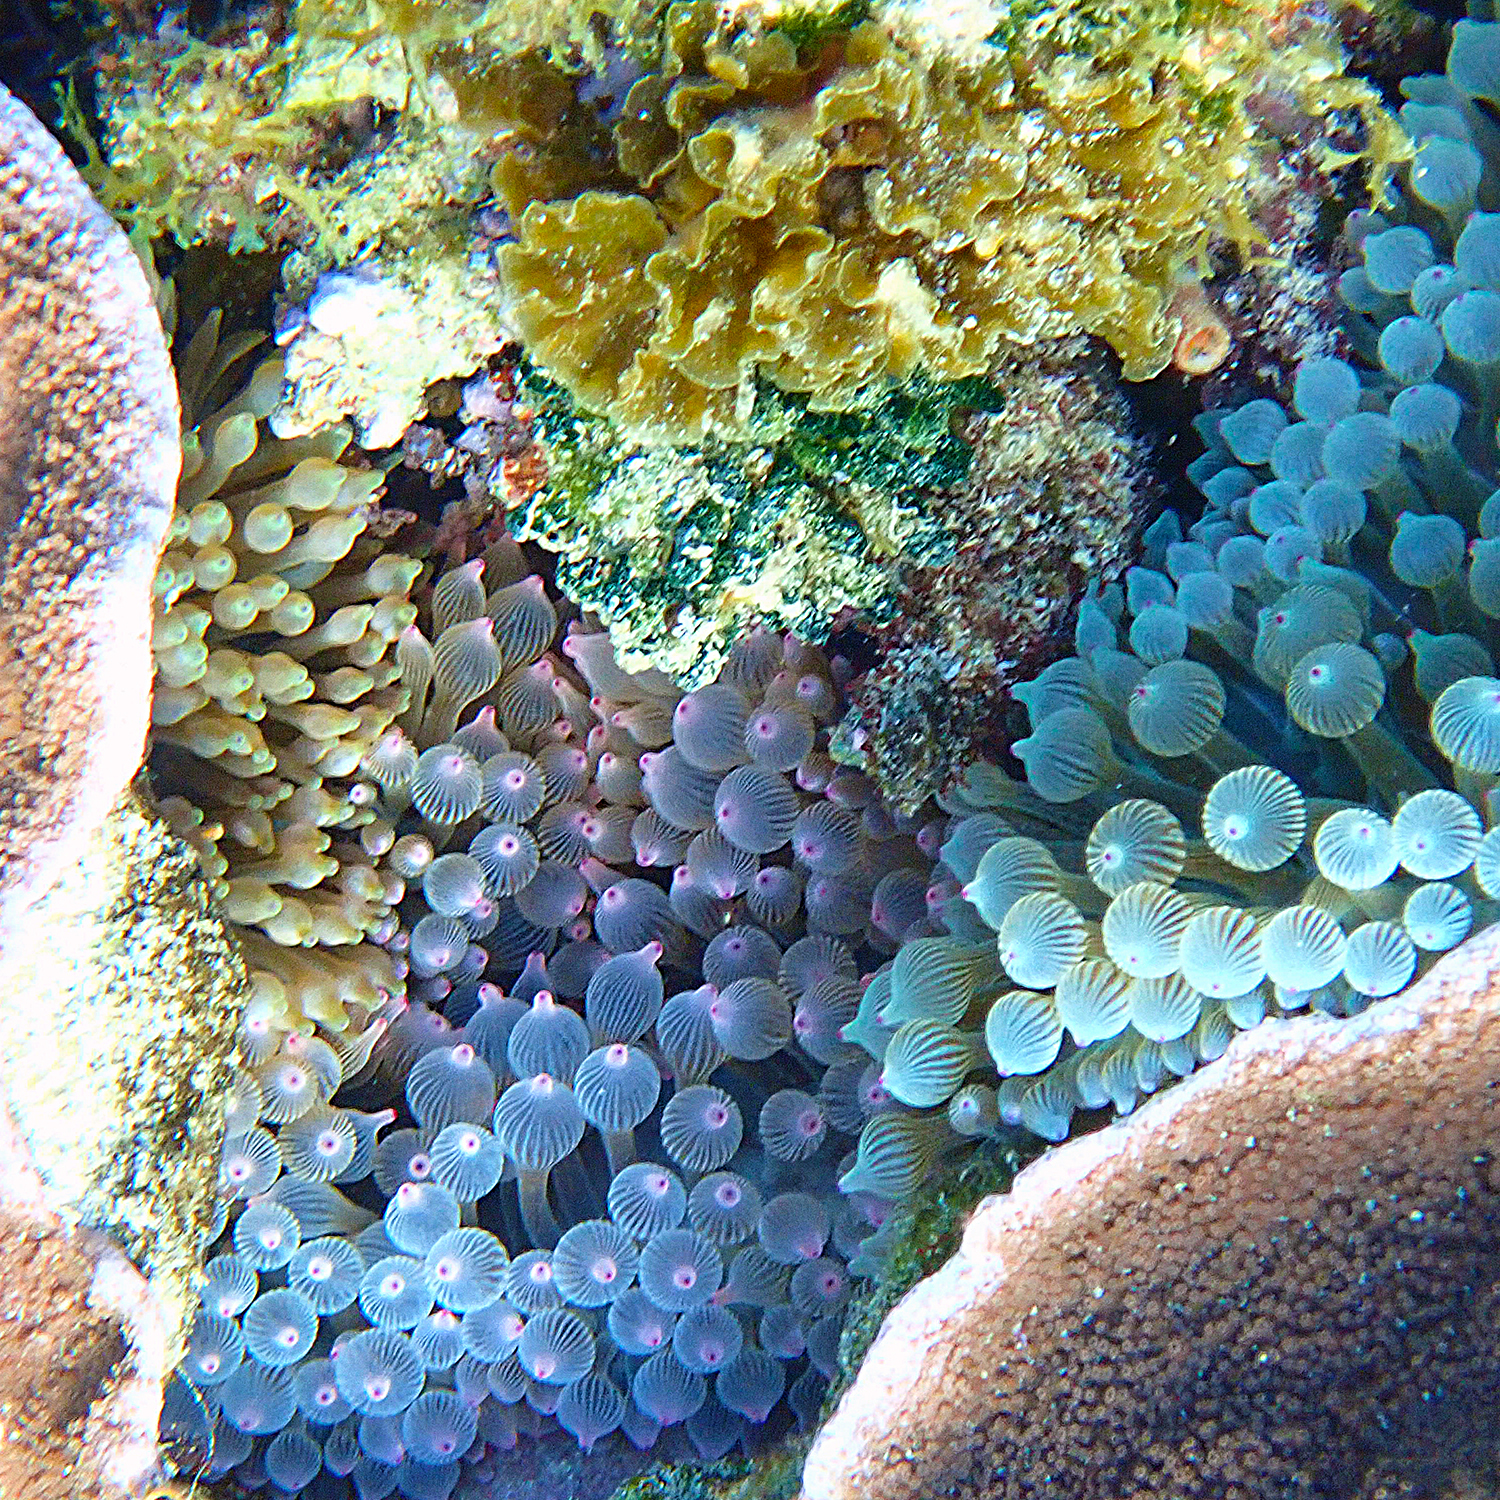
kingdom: Animalia
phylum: Cnidaria
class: Anthozoa
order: Actiniaria
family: Actiniidae
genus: Entacmaea
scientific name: Entacmaea quadricolor
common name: Bulb tentacle sea anemone
